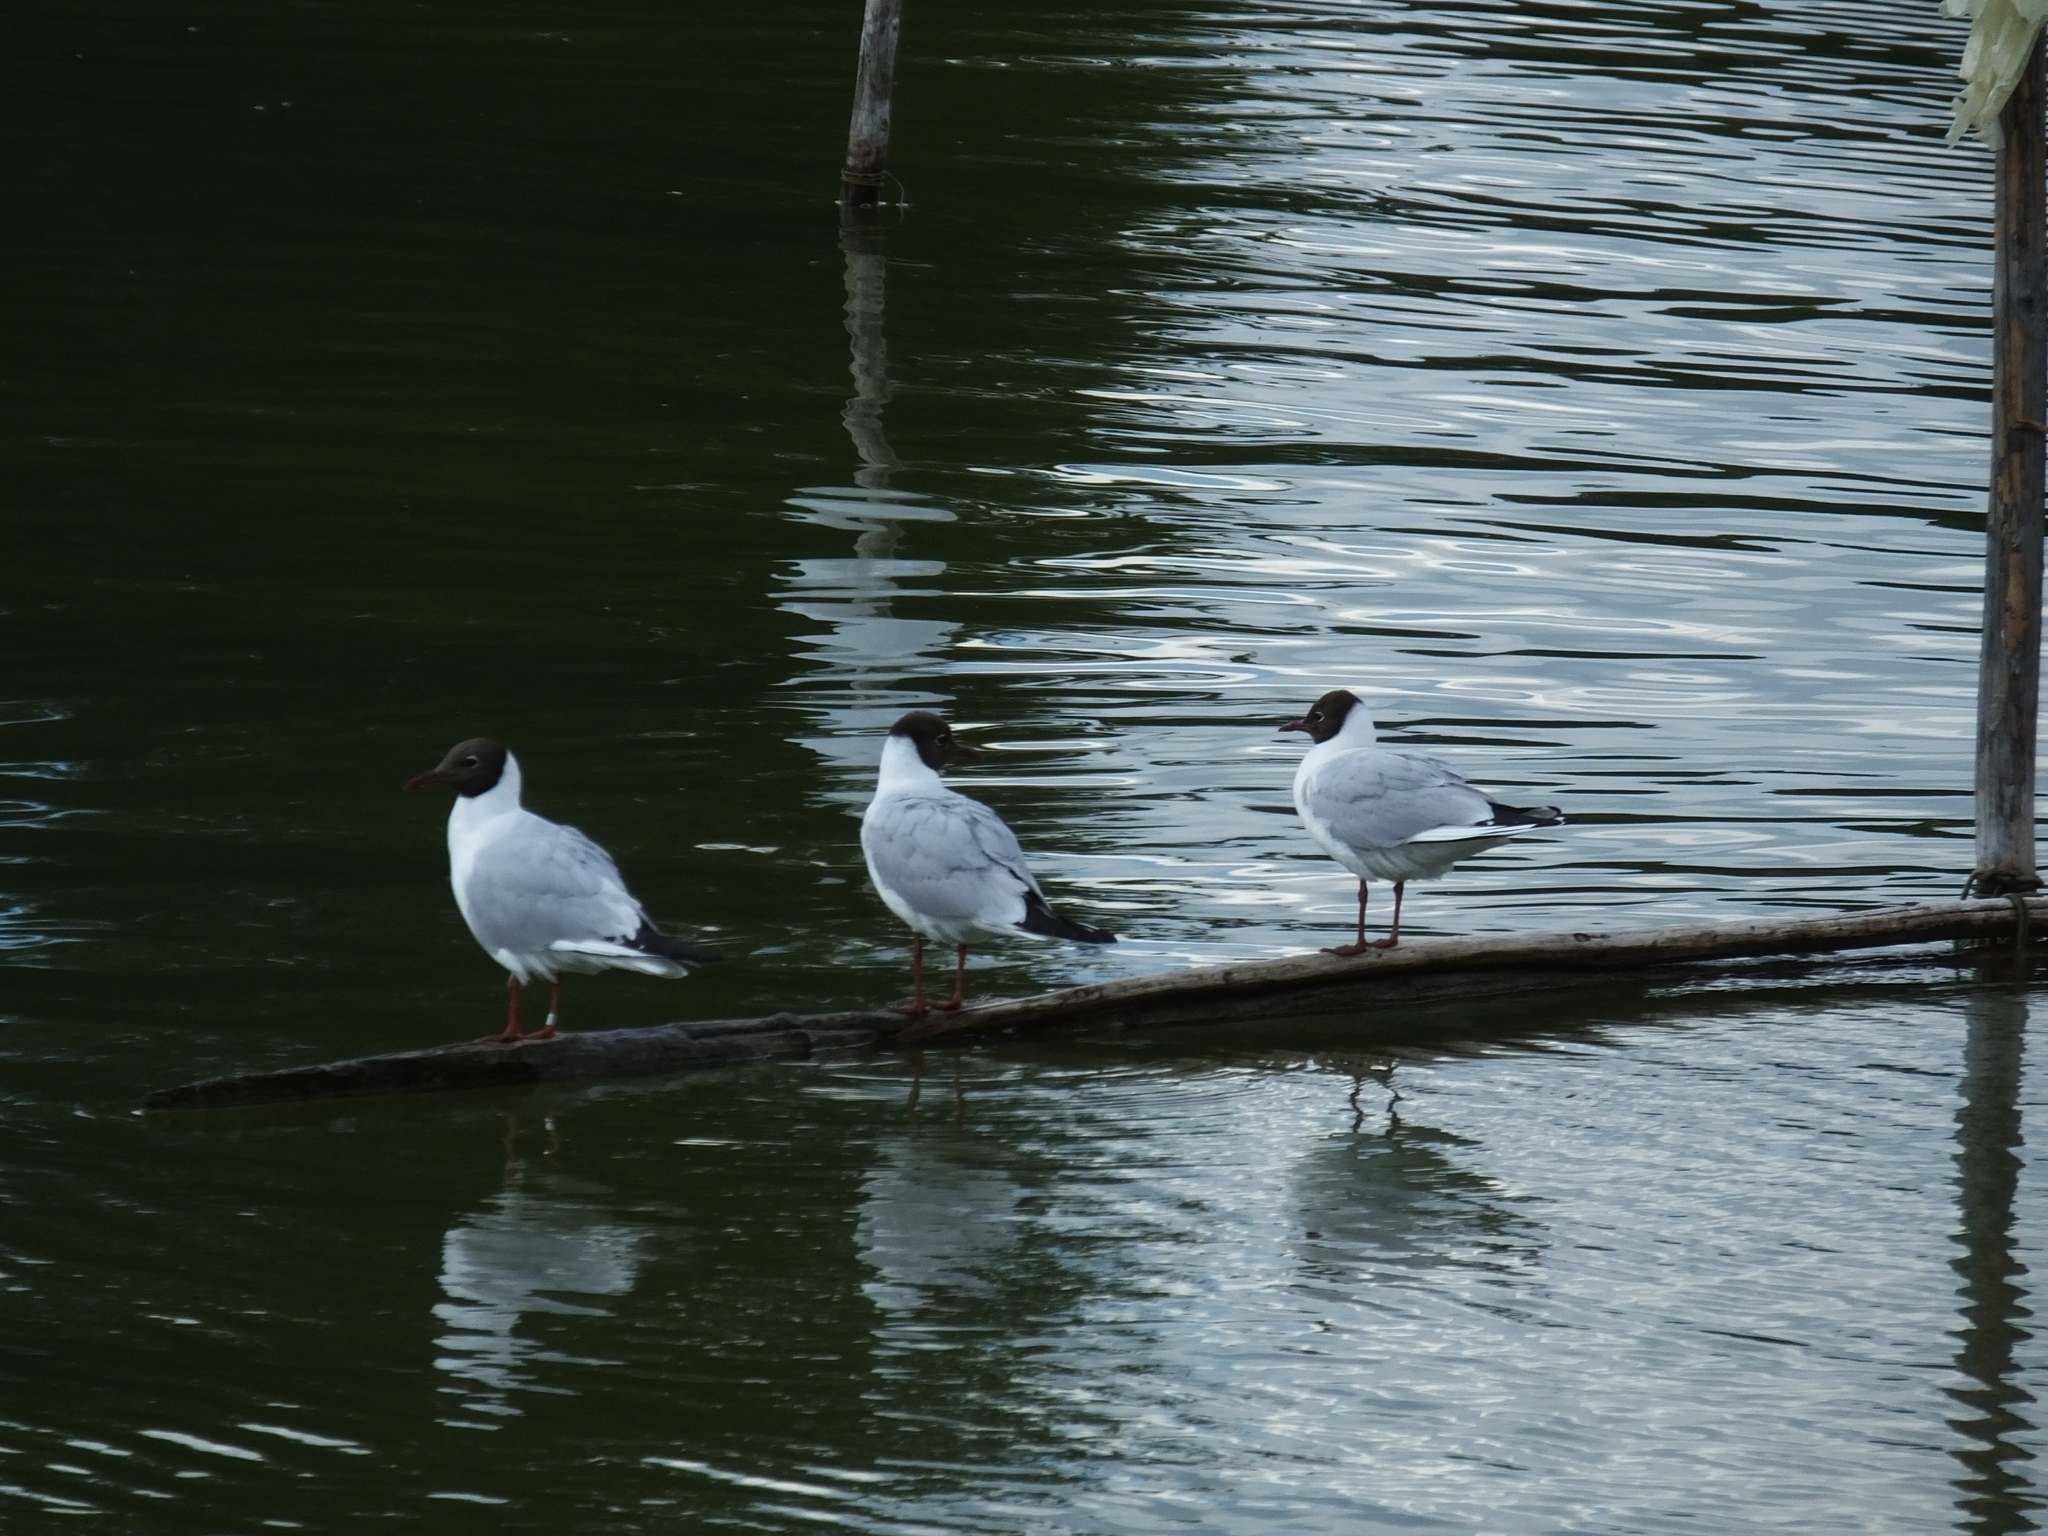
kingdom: Animalia
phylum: Chordata
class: Aves
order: Charadriiformes
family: Laridae
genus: Chroicocephalus
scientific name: Chroicocephalus ridibundus
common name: Black-headed gull
